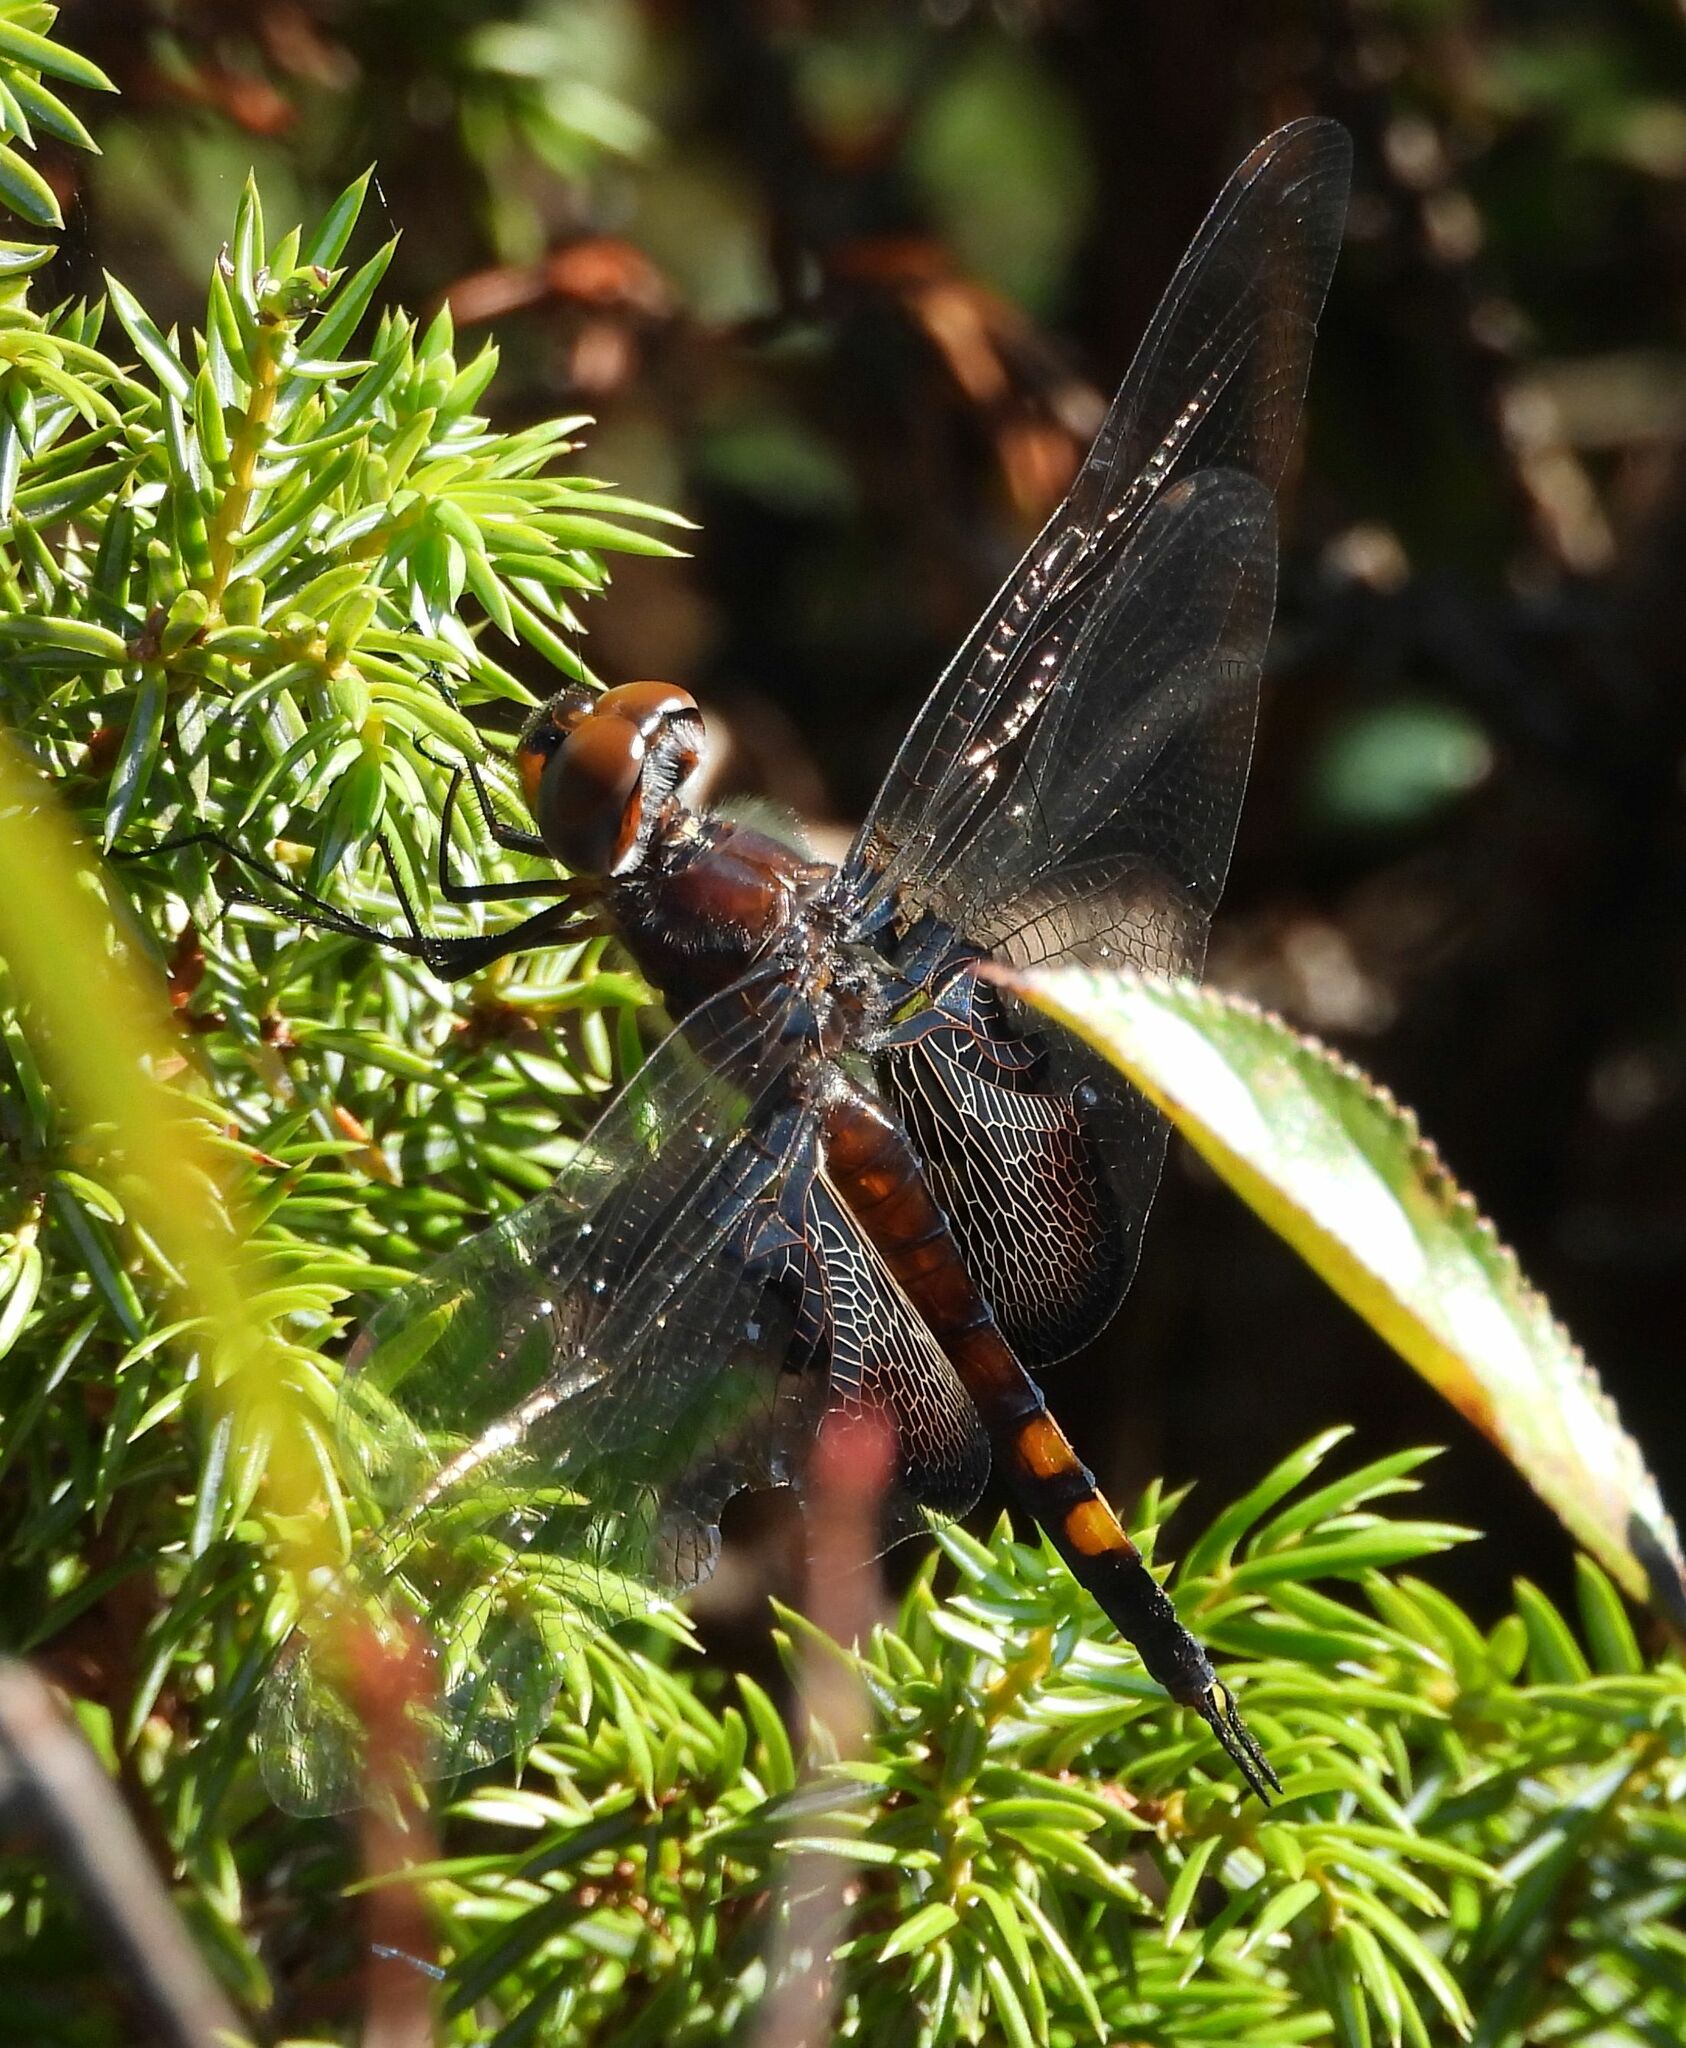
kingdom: Animalia
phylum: Arthropoda
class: Insecta
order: Odonata
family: Libellulidae
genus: Tramea
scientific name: Tramea lacerata
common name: Black saddlebags
